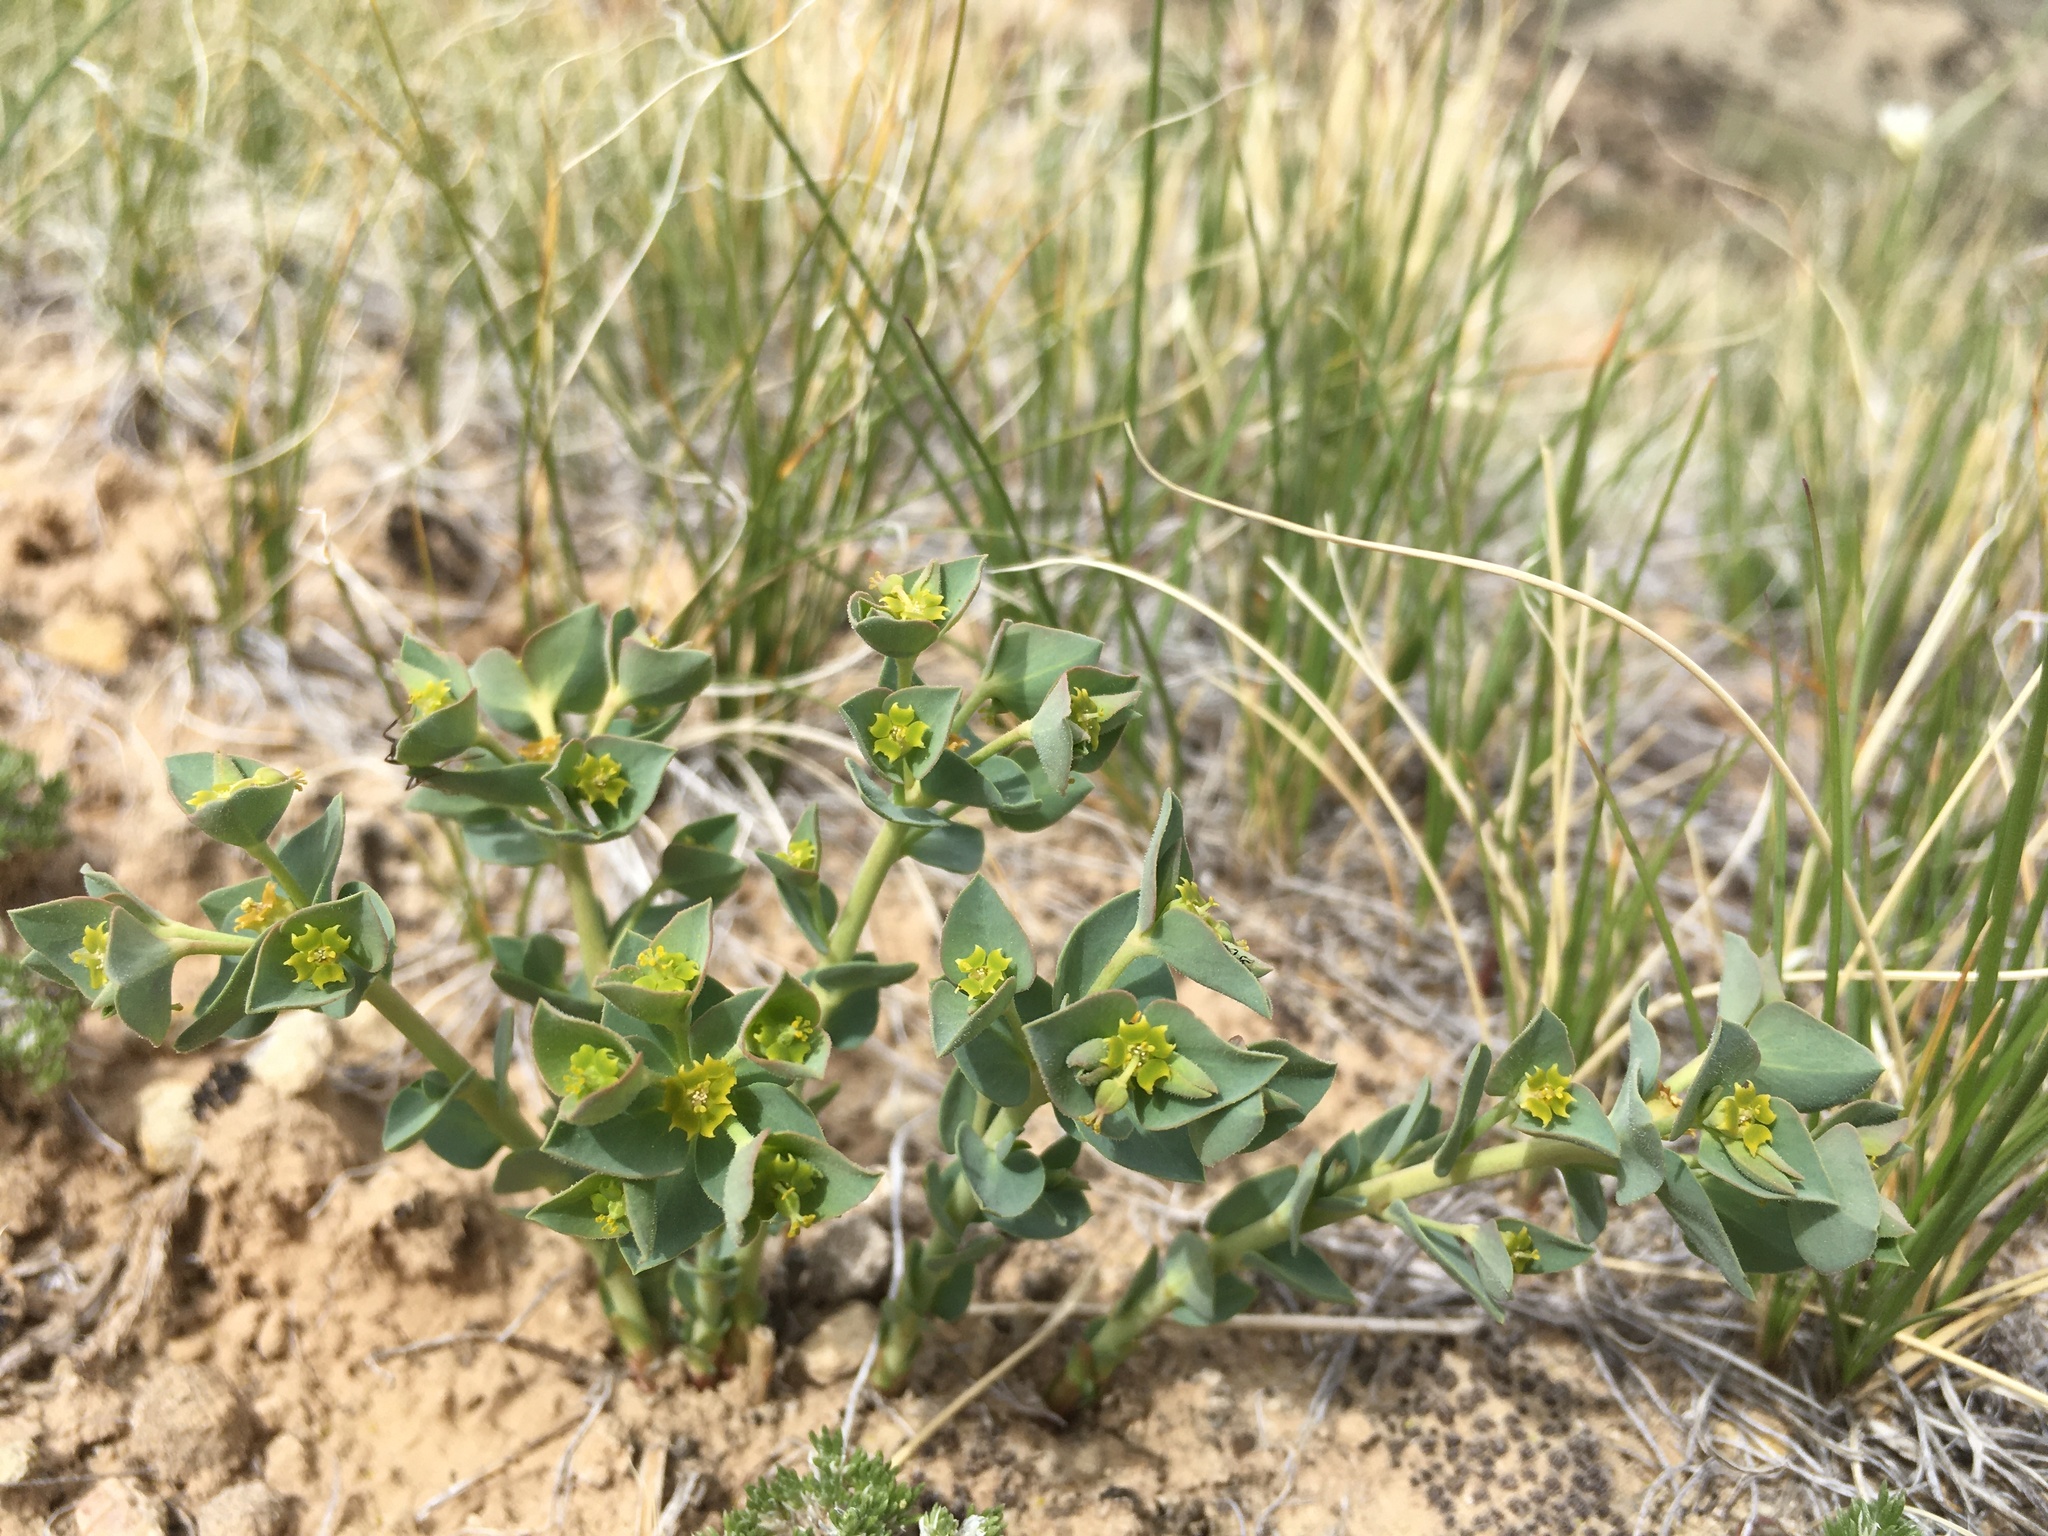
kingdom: Plantae
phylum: Tracheophyta
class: Magnoliopsida
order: Malpighiales
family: Euphorbiaceae
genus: Euphorbia
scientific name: Euphorbia brachycera
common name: Shorthorn spurge
